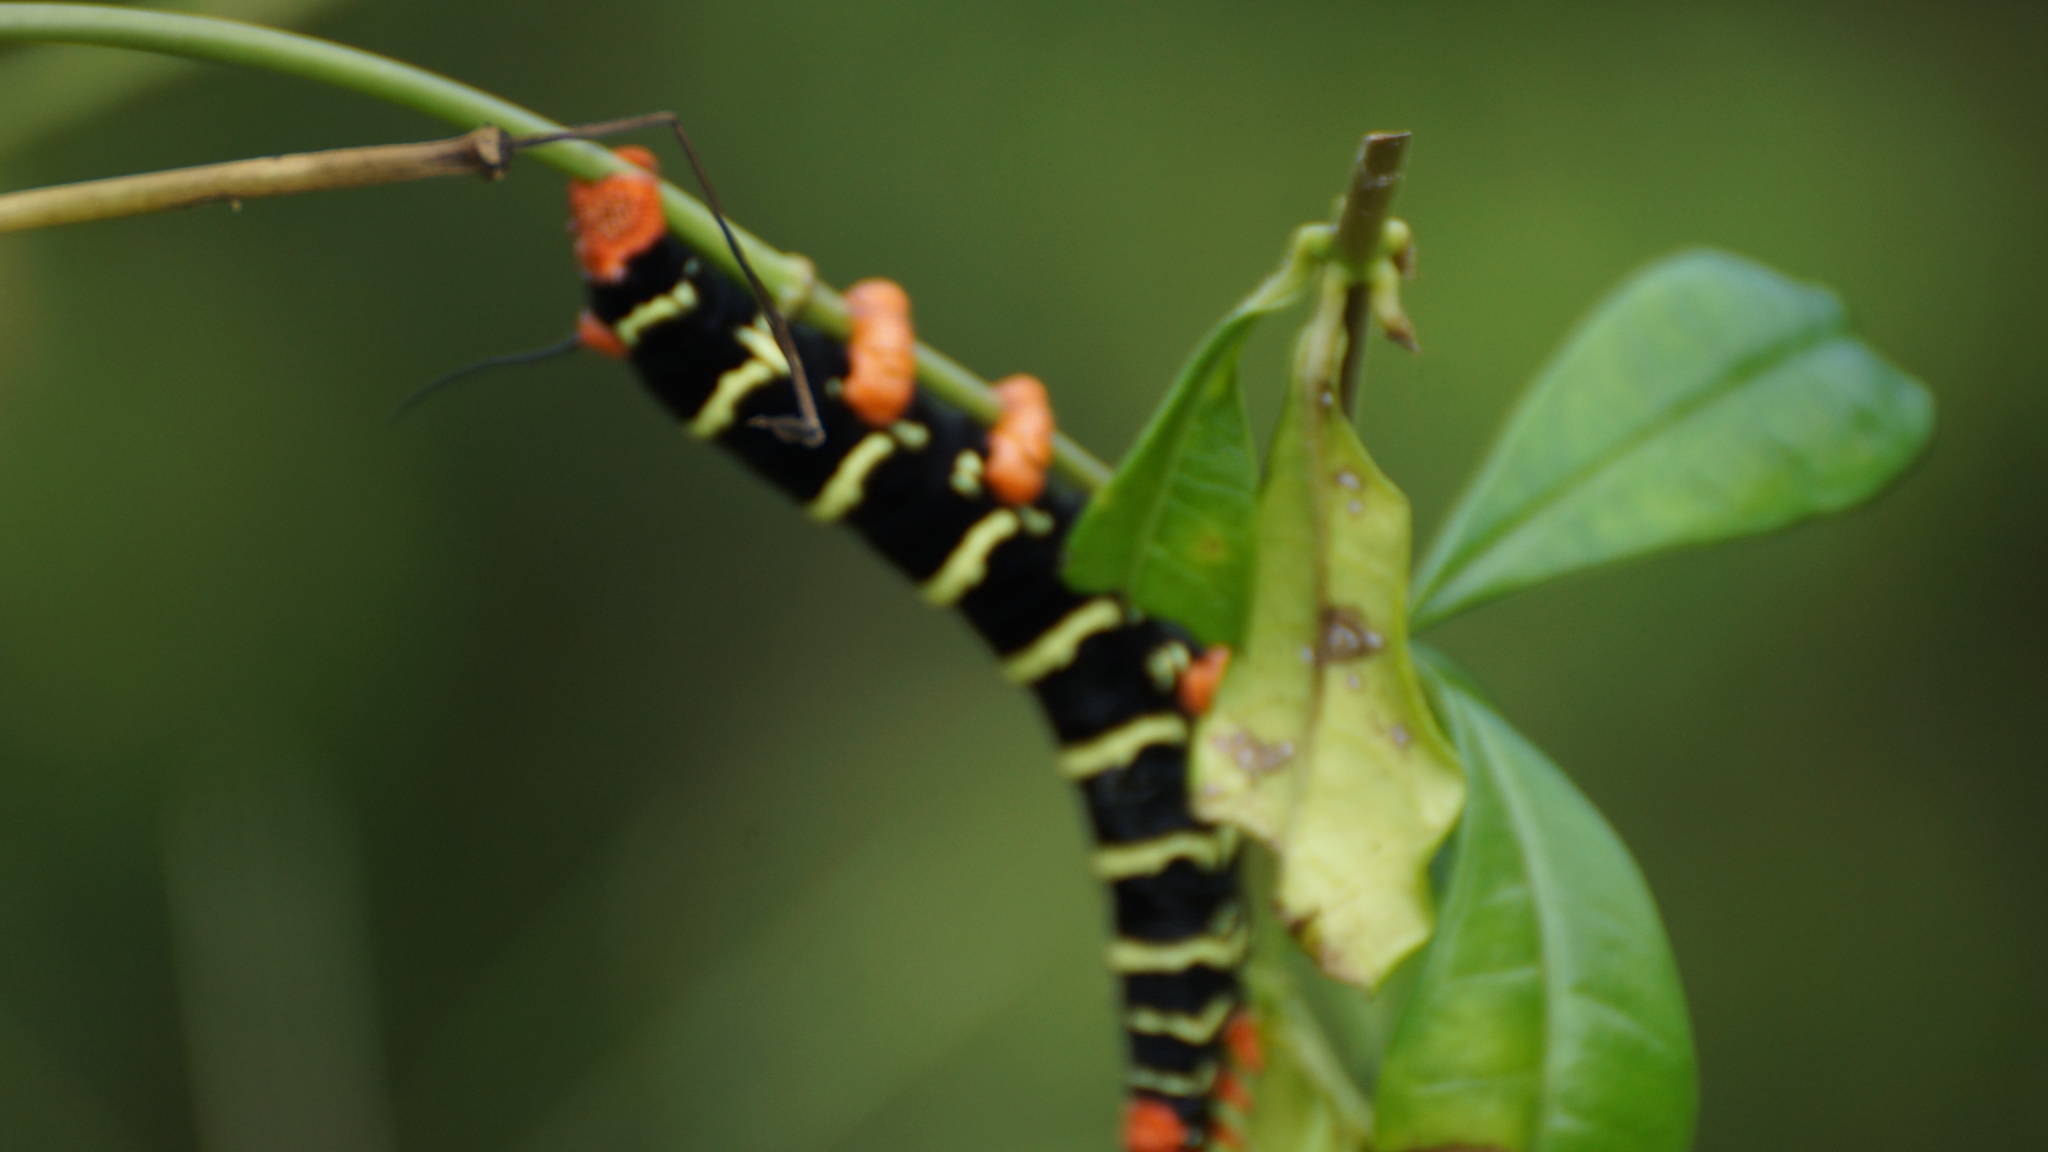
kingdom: Animalia
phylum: Arthropoda
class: Insecta
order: Lepidoptera
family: Sphingidae
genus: Pseudosphinx
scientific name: Pseudosphinx tetrio
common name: Tetrio sphinx
